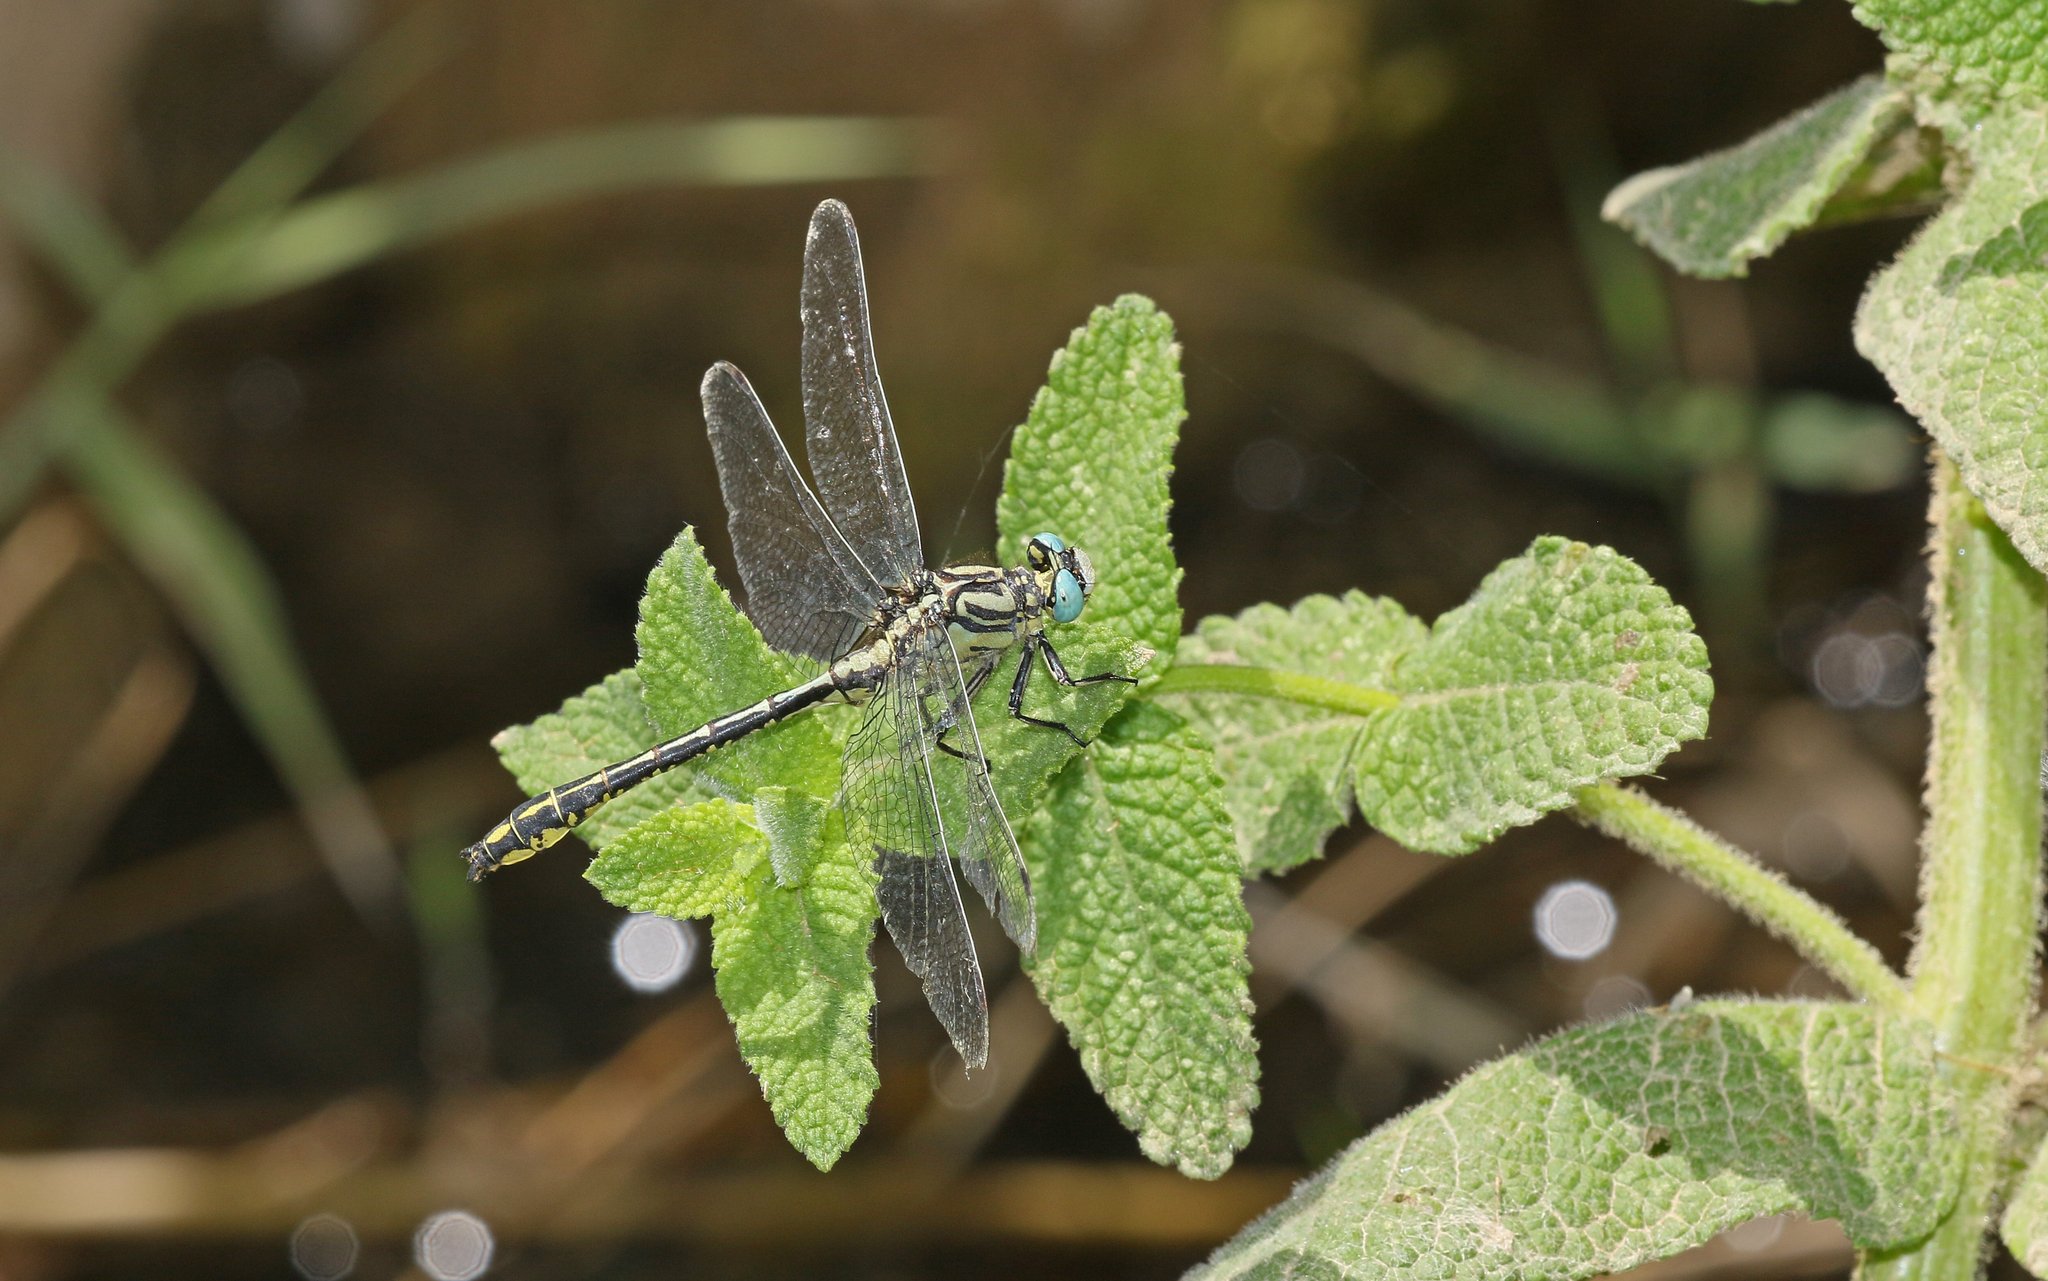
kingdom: Animalia
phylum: Arthropoda
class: Insecta
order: Odonata
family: Gomphidae
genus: Gomphus
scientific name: Gomphus simillimus
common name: Yellow clubtail
